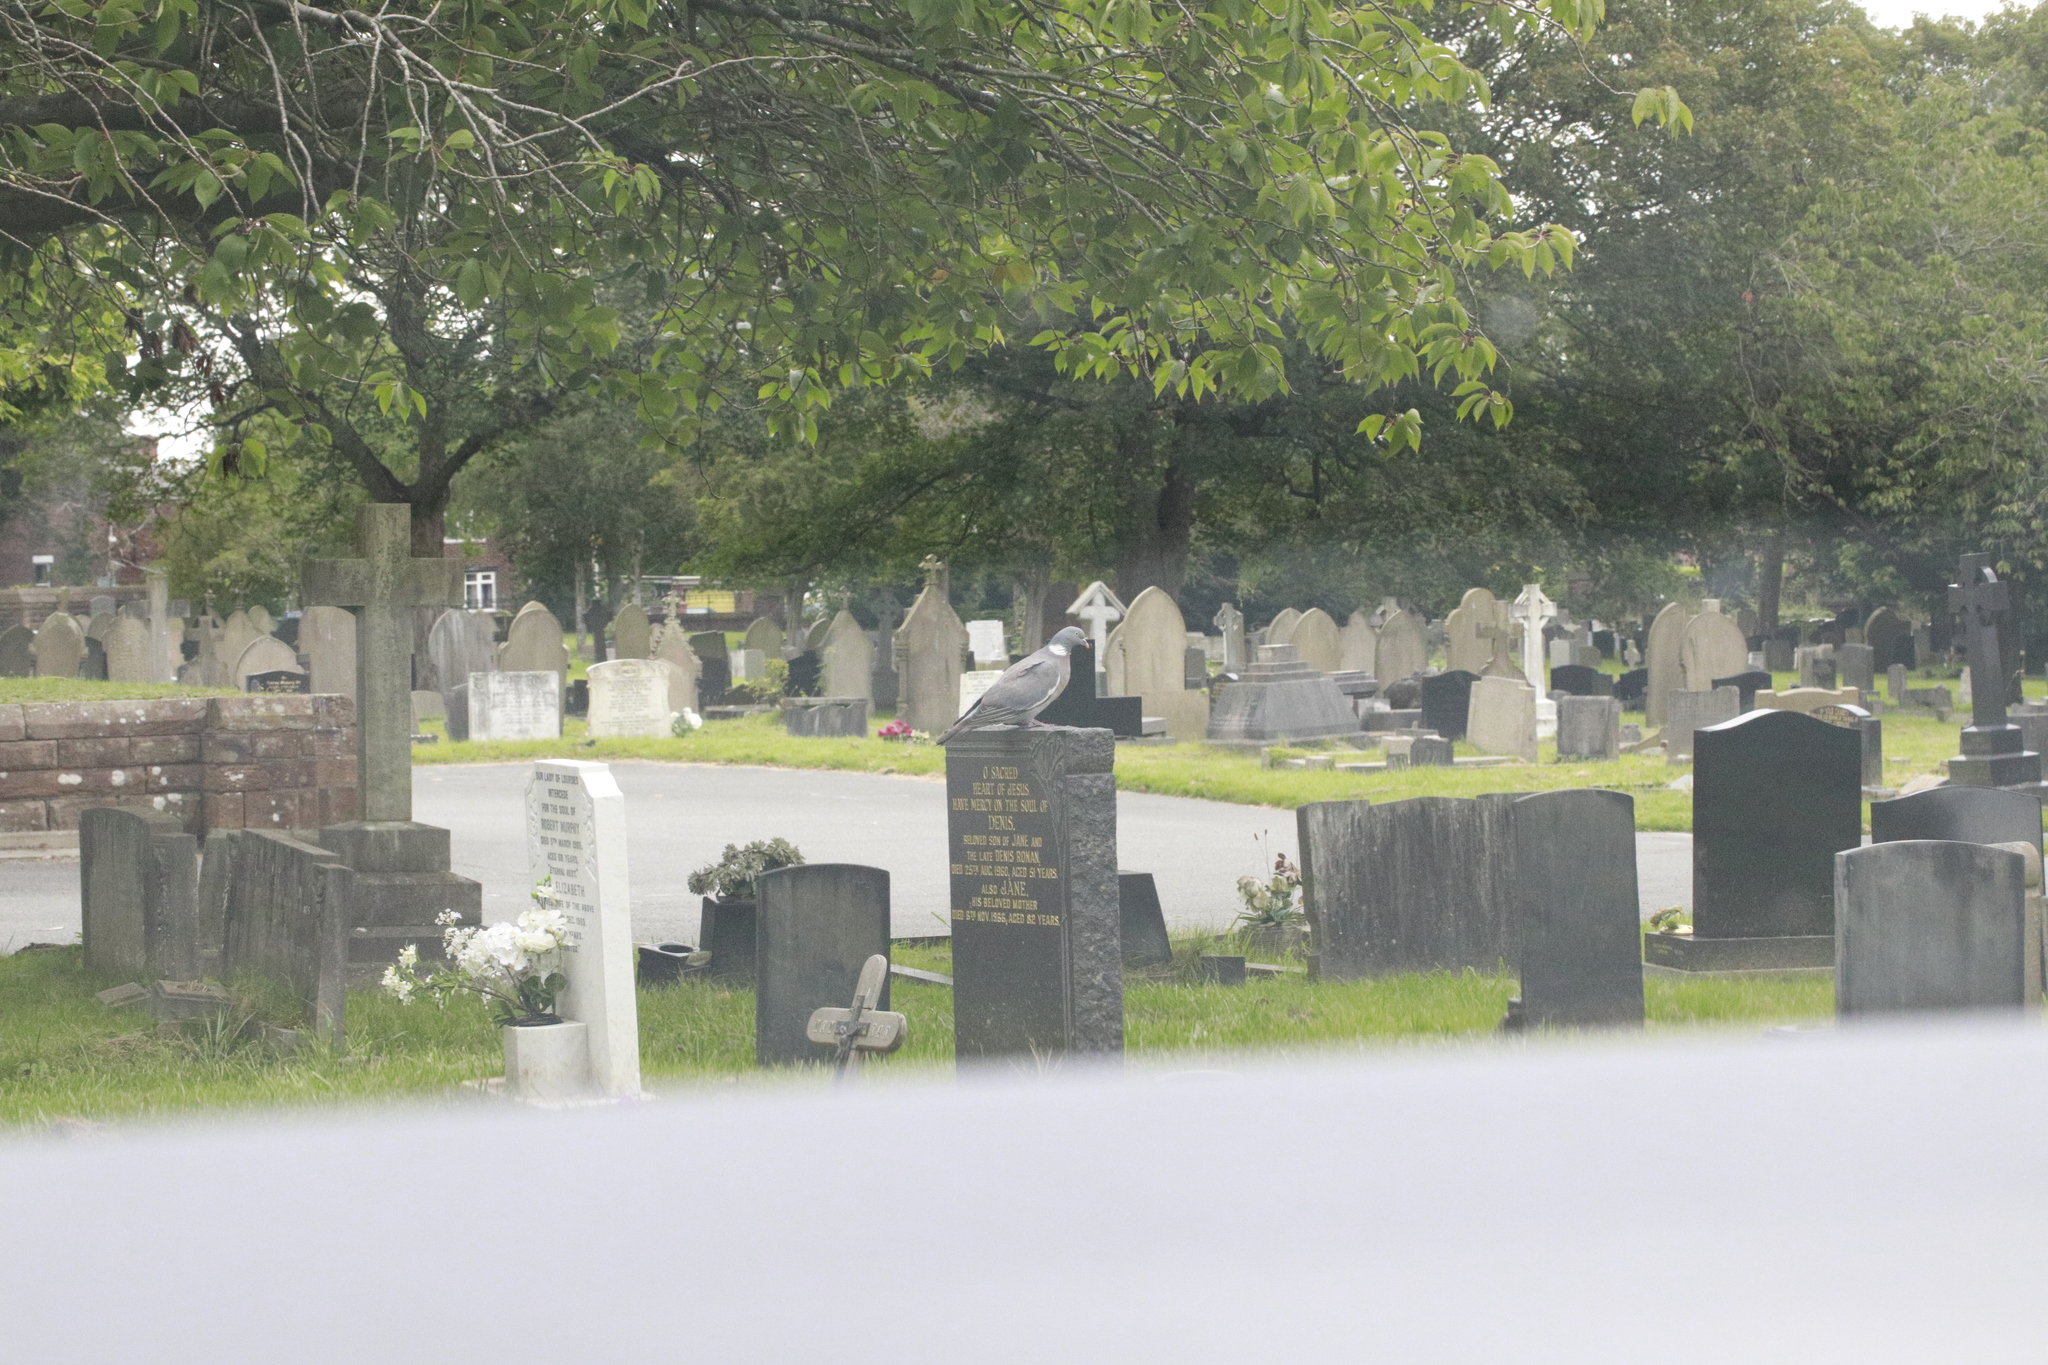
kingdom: Animalia
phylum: Chordata
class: Aves
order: Columbiformes
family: Columbidae
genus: Columba
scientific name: Columba palumbus
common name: Common wood pigeon
